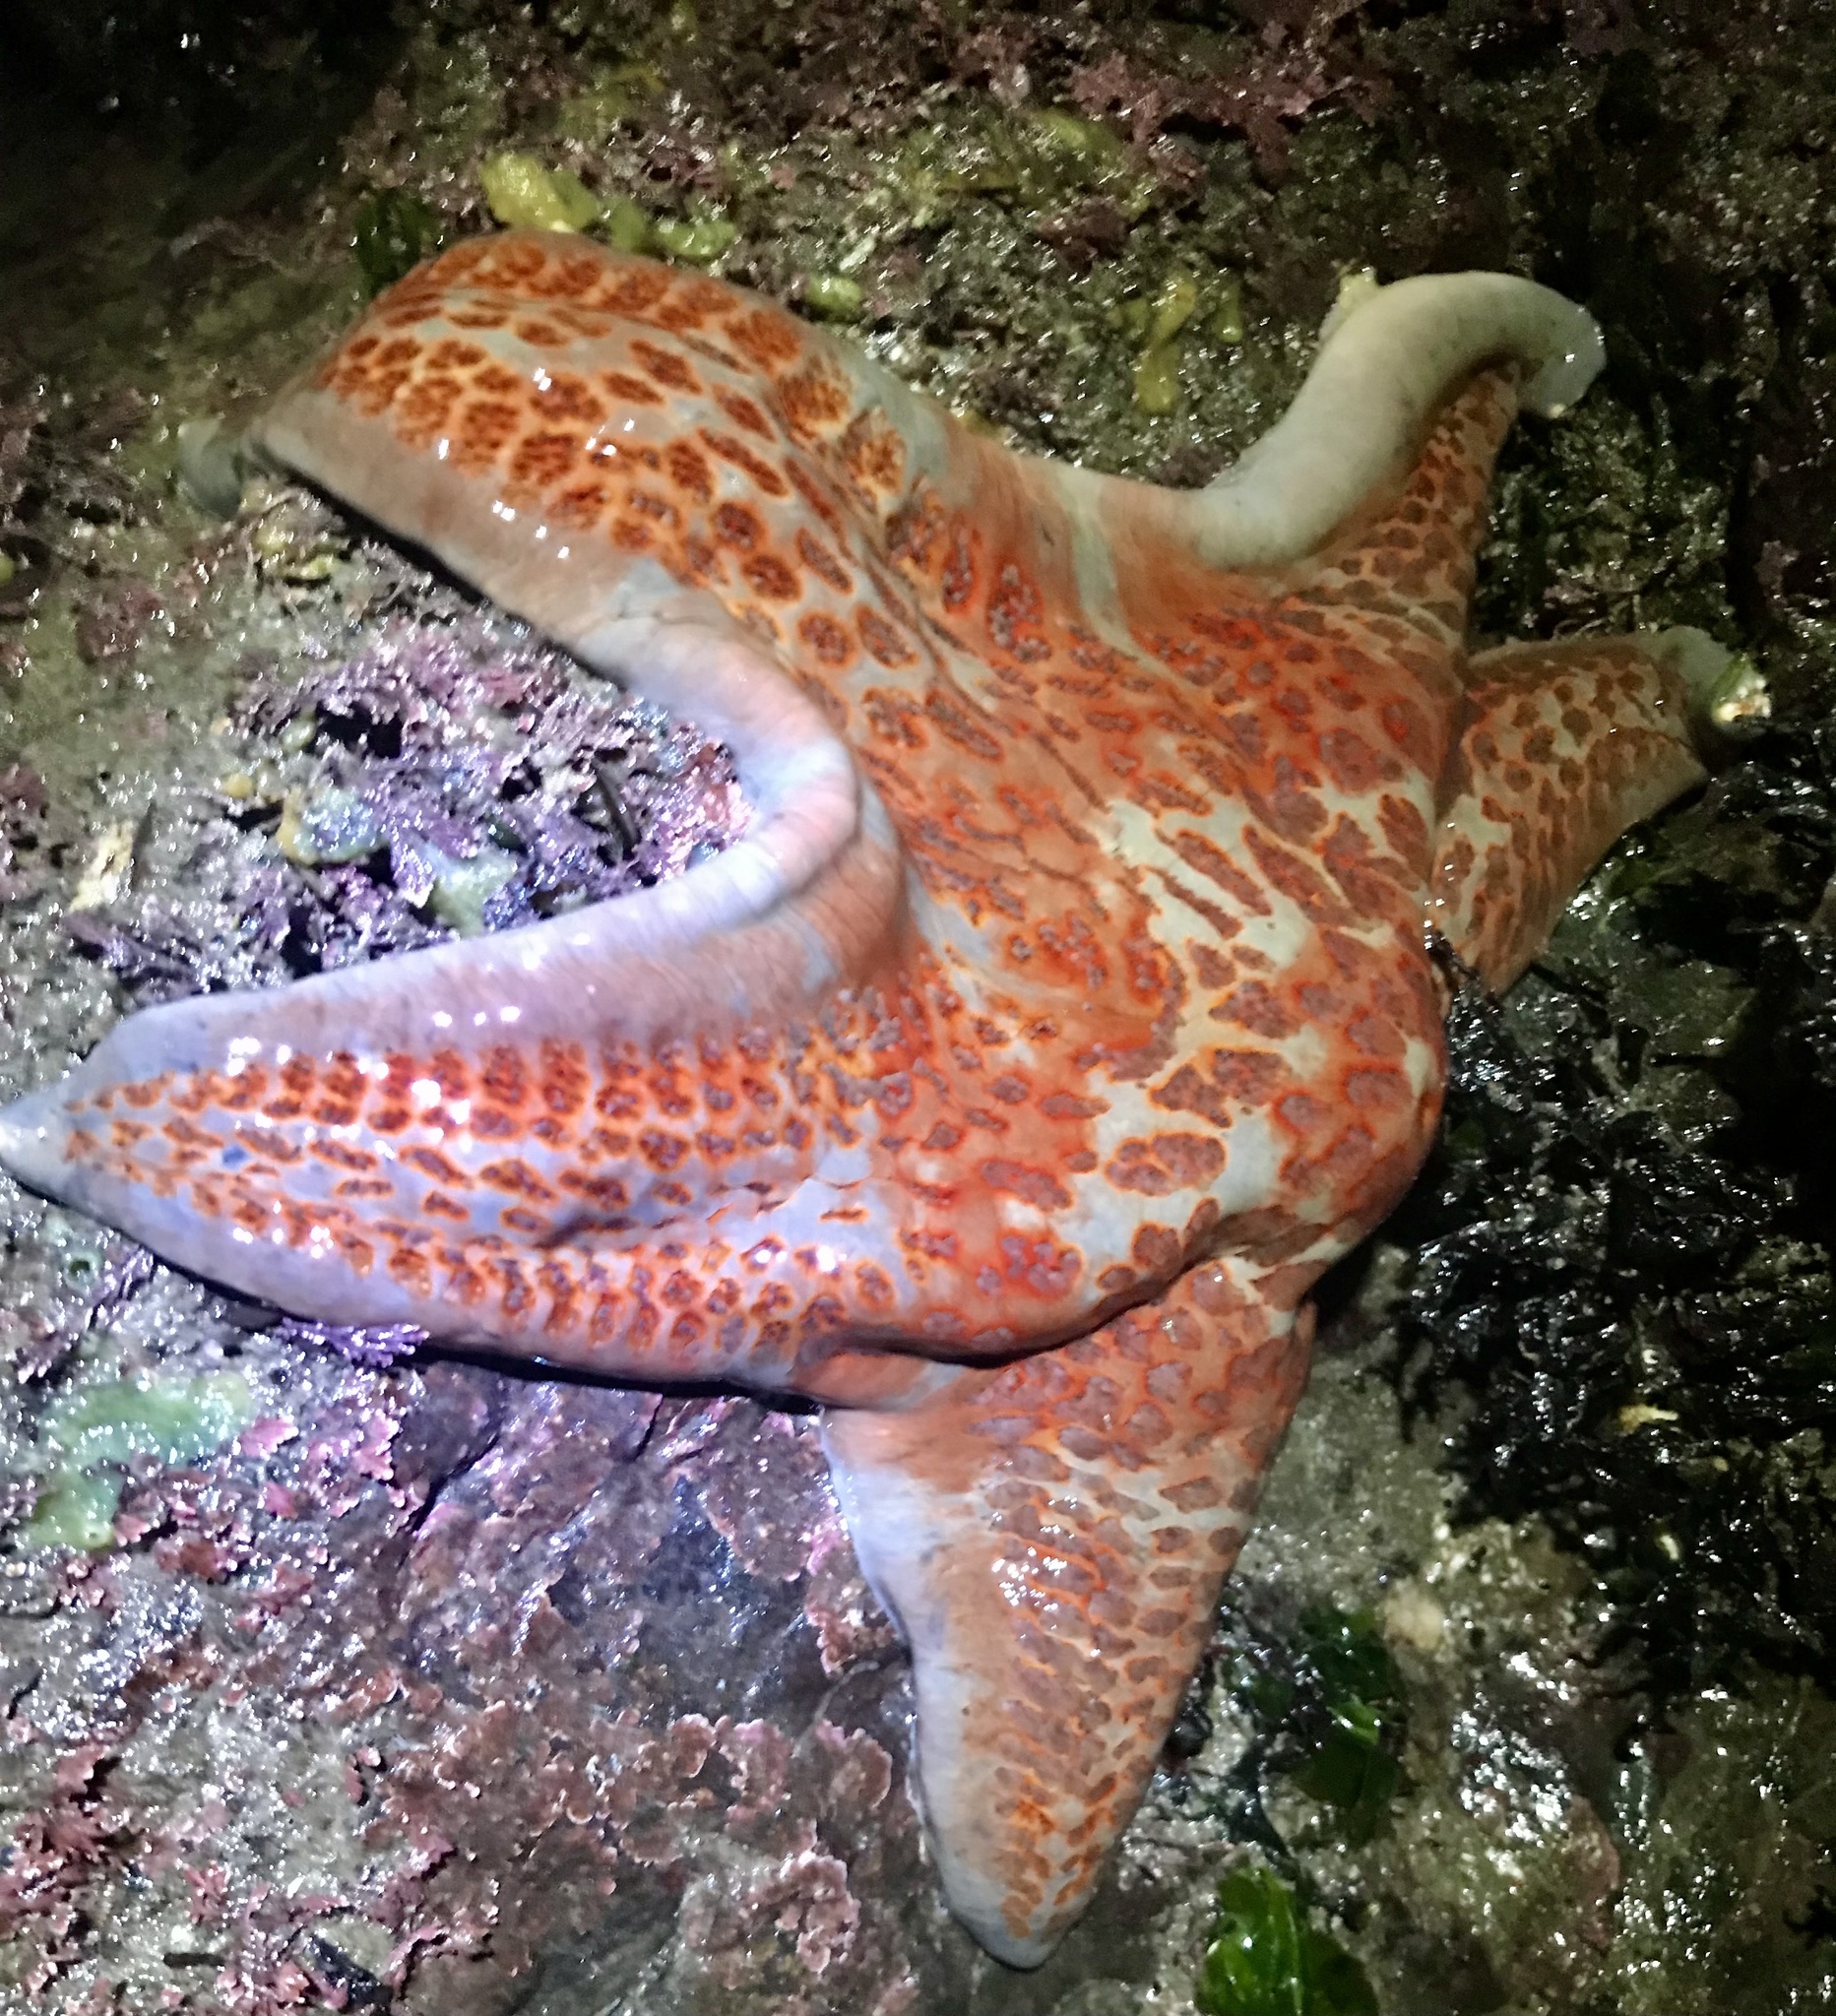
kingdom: Animalia
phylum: Echinodermata
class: Asteroidea
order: Valvatida
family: Asteropseidae
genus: Dermasterias
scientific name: Dermasterias imbricata
